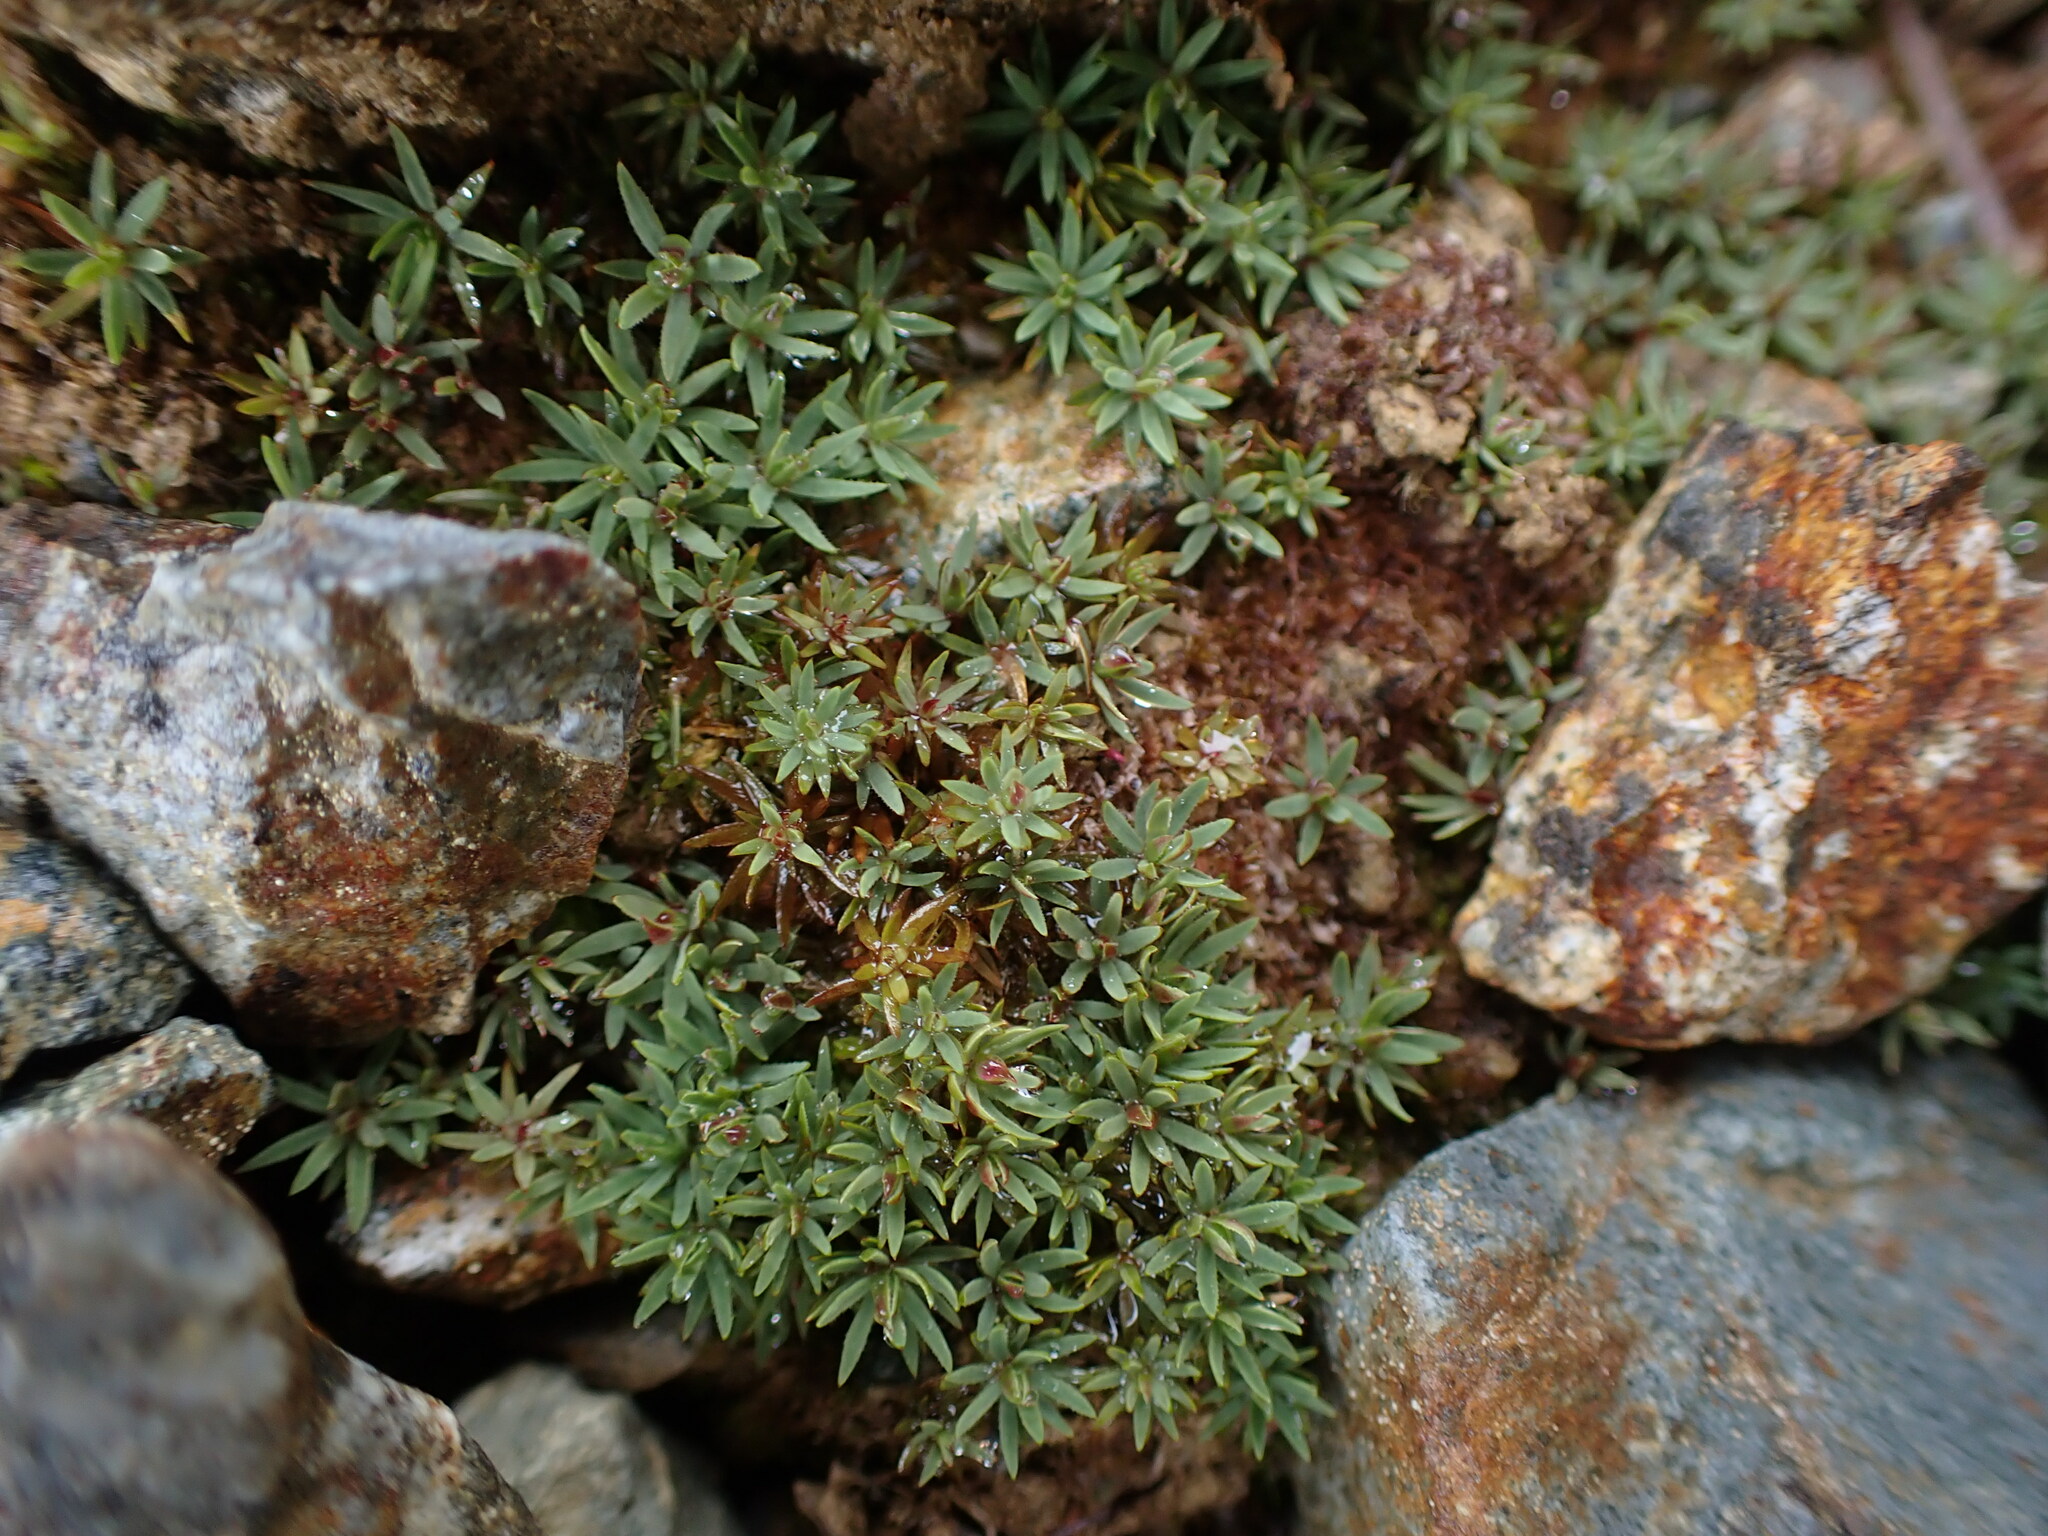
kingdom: Plantae
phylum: Bryophyta
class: Polytrichopsida
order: Polytrichales
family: Polytrichaceae
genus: Pogonatum
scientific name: Pogonatum urnigerum
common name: Urn hair moss
